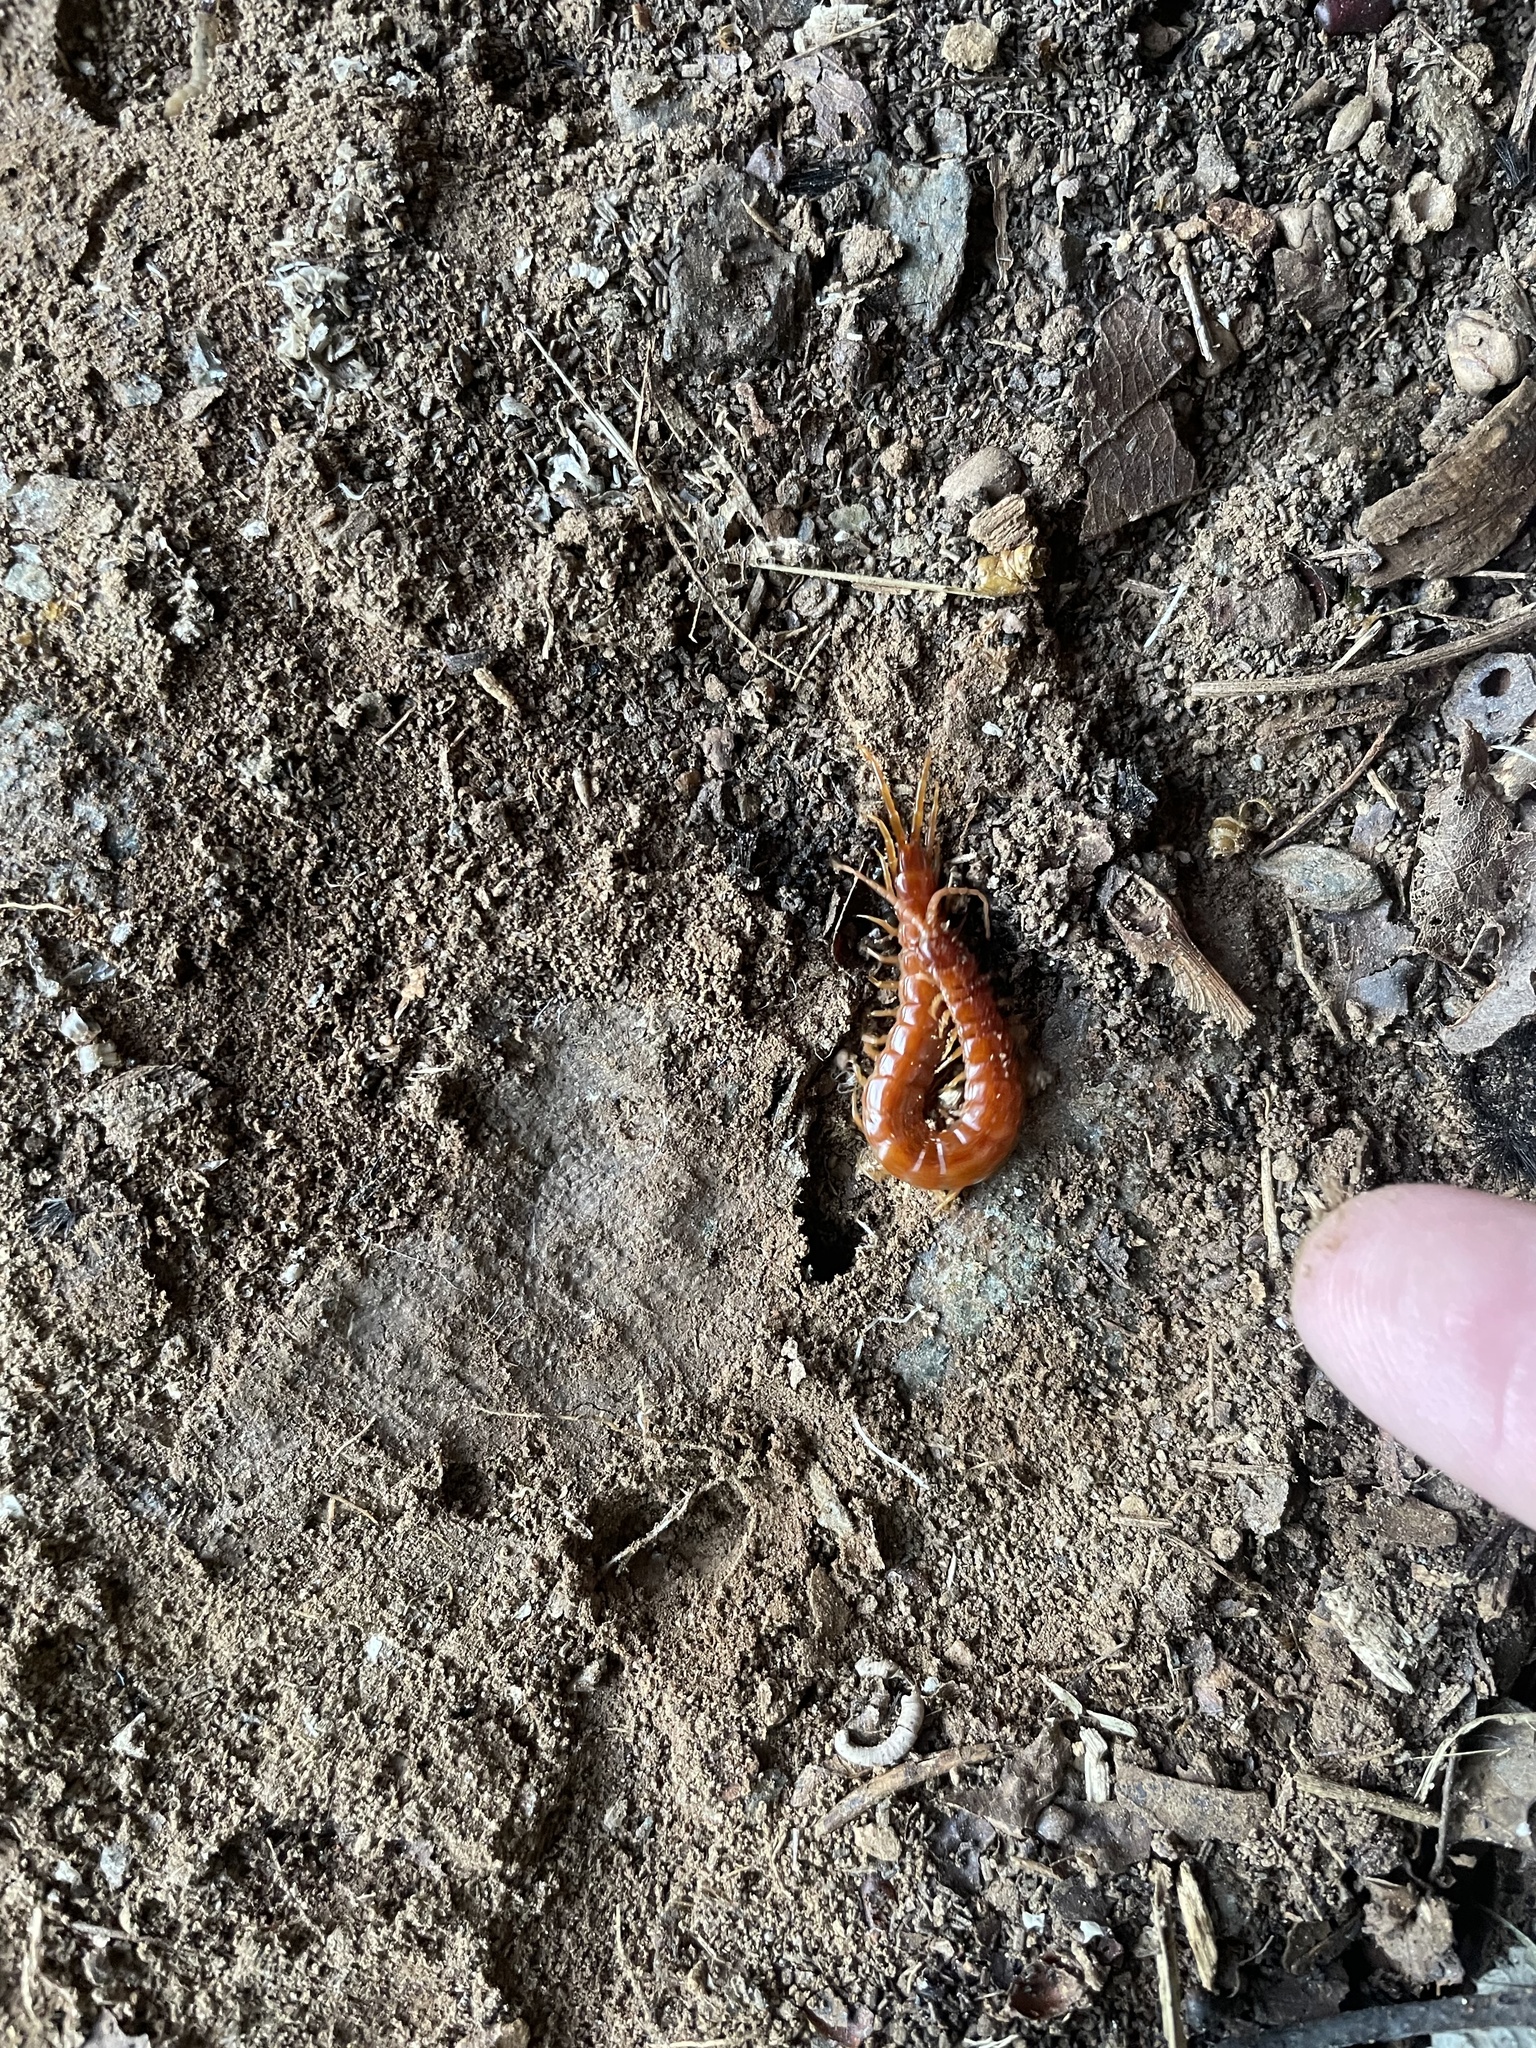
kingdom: Animalia
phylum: Arthropoda
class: Chilopoda
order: Scolopendromorpha
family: Scolopocryptopidae
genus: Scolopocryptops
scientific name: Scolopocryptops sexspinosus
